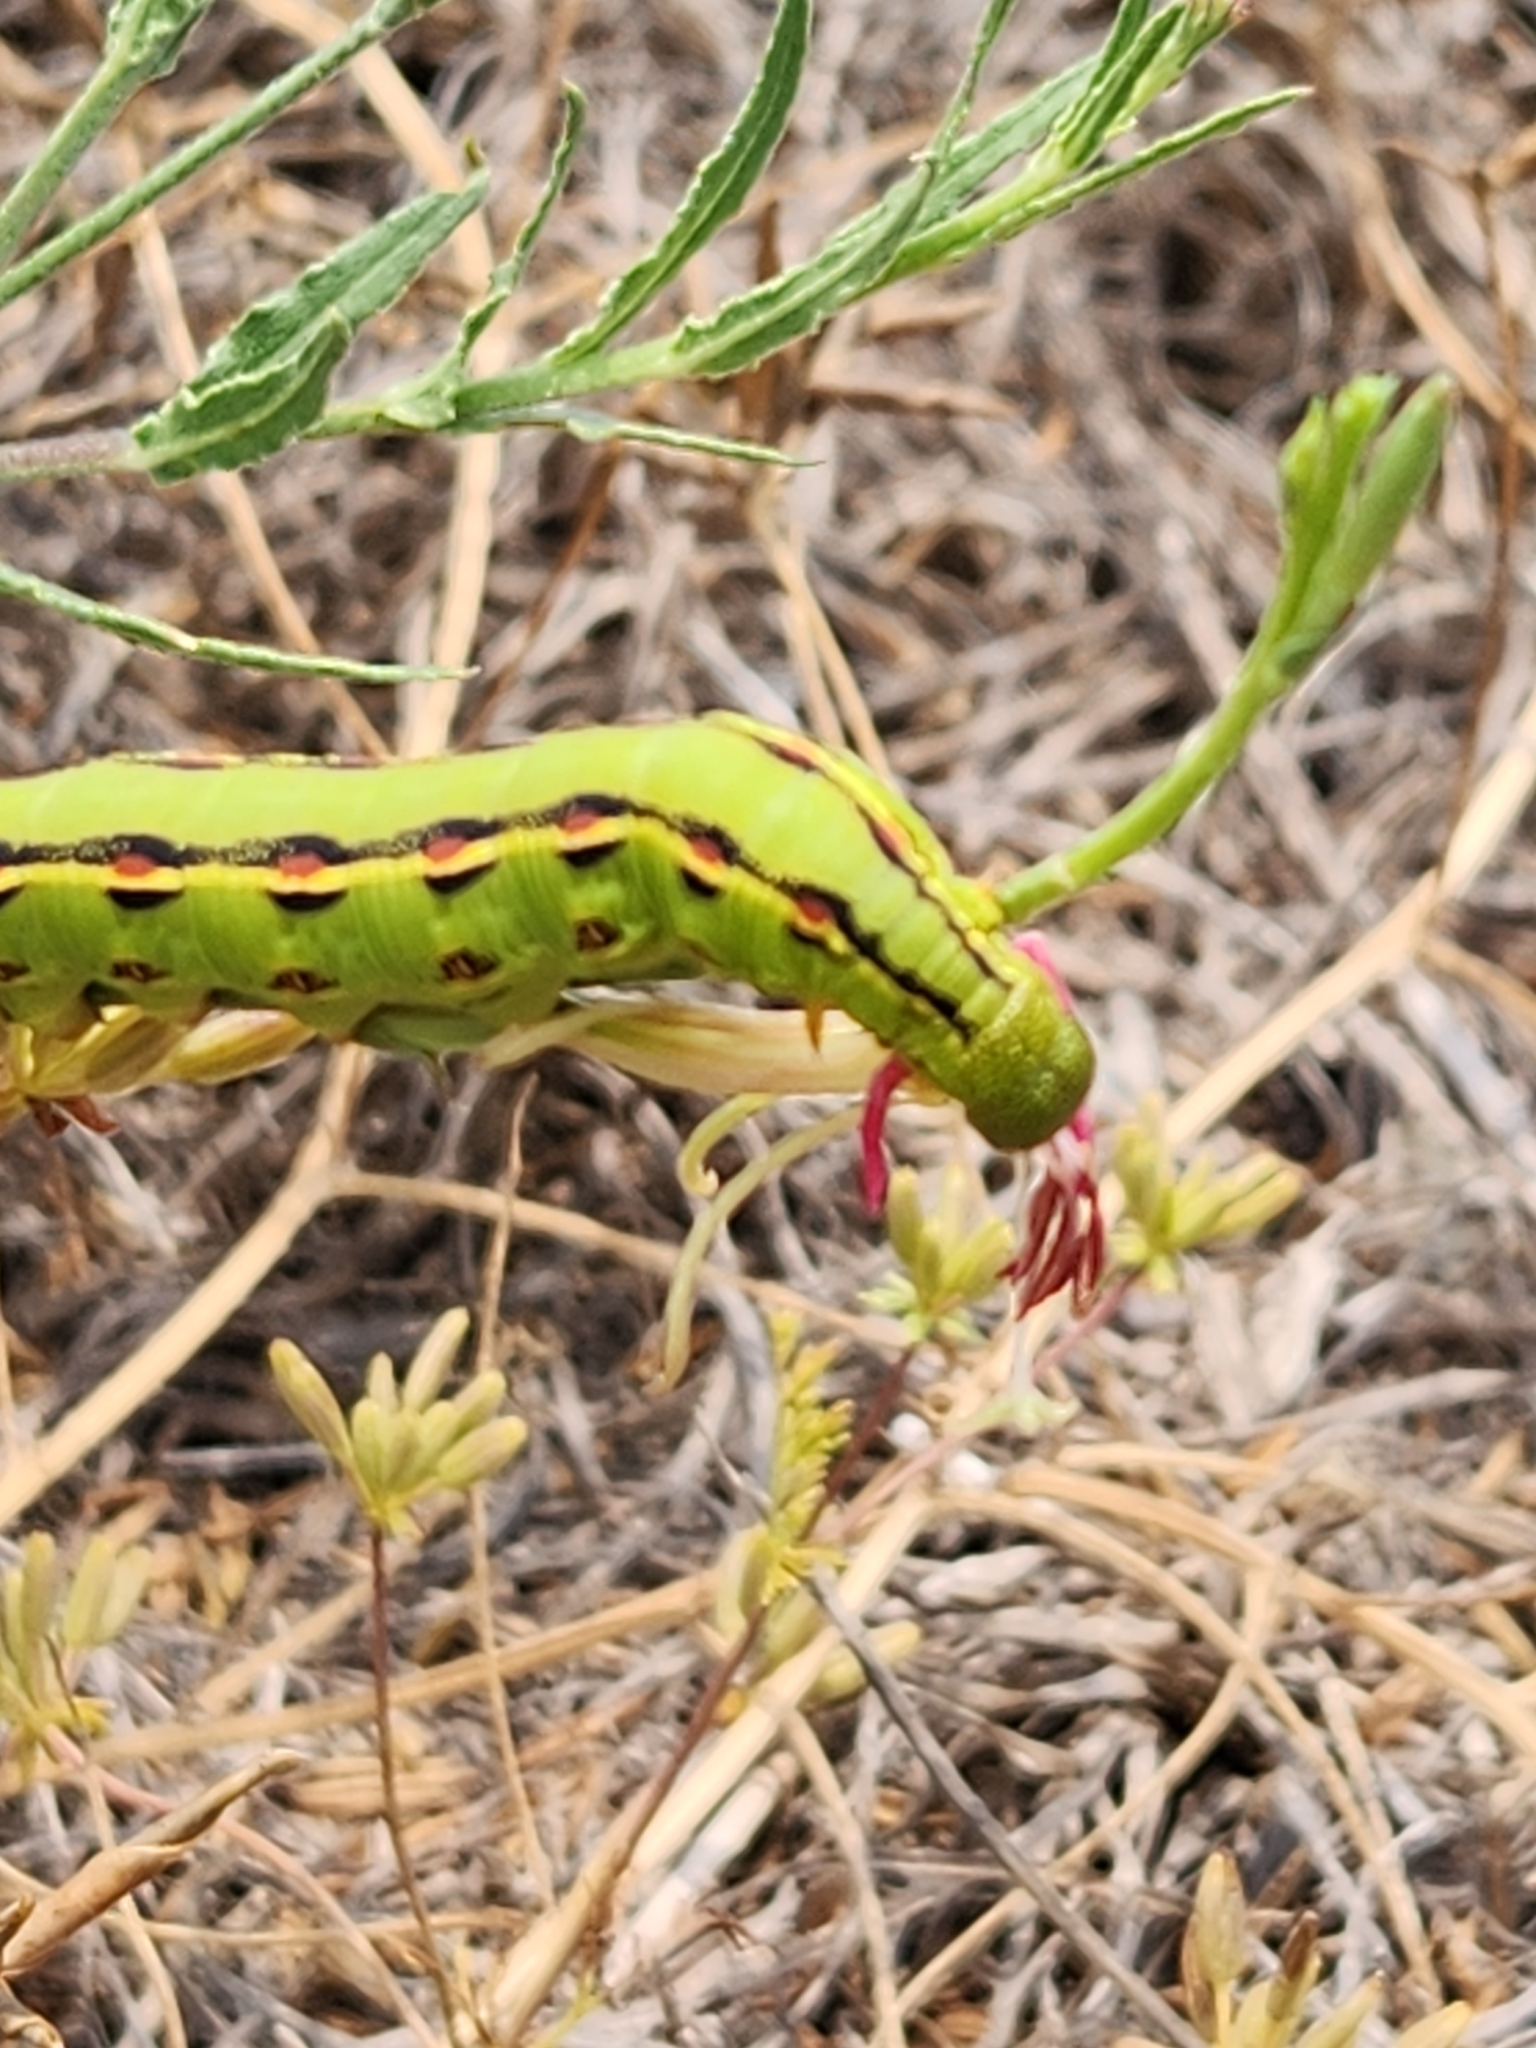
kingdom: Animalia
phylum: Arthropoda
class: Insecta
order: Lepidoptera
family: Sphingidae
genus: Hyles
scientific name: Hyles lineata
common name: White-lined sphinx
